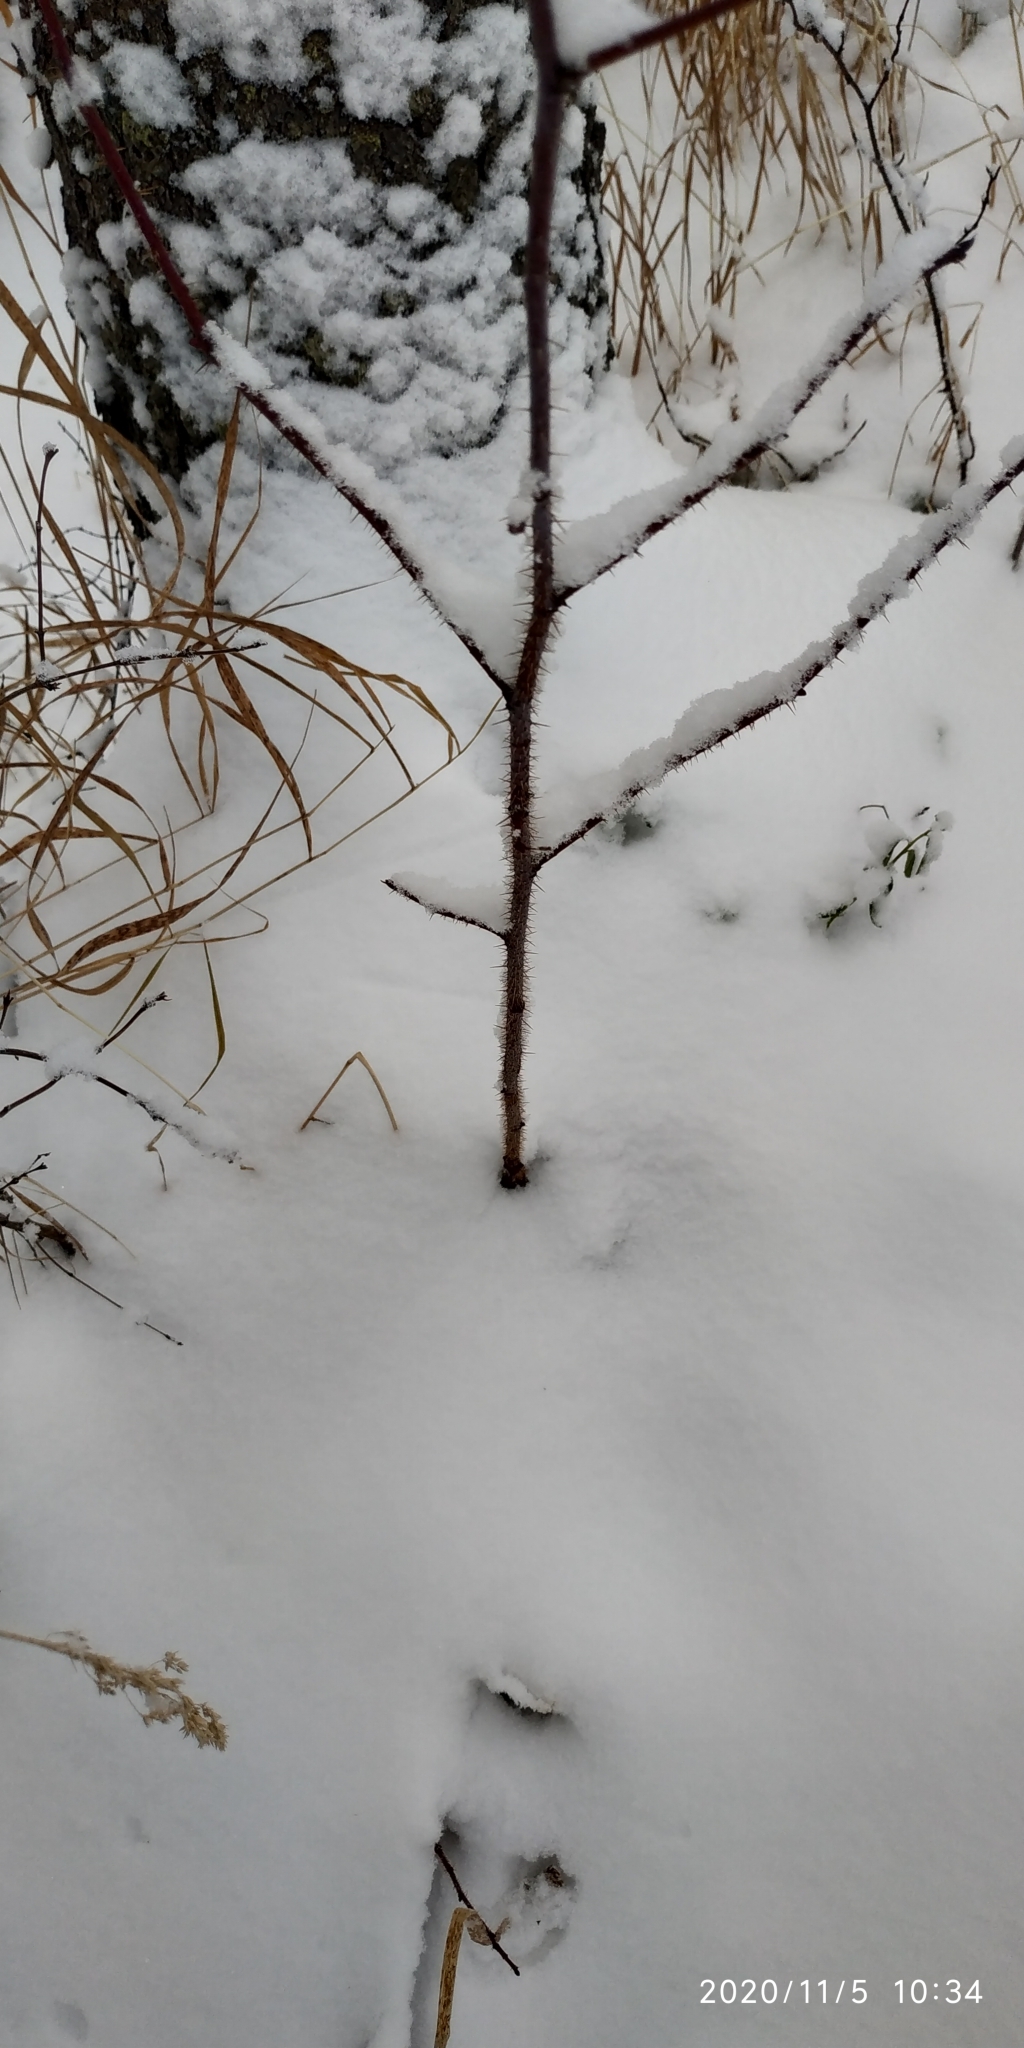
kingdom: Plantae
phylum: Tracheophyta
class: Magnoliopsida
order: Rosales
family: Rosaceae
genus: Rosa
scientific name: Rosa acicularis
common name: Prickly rose
